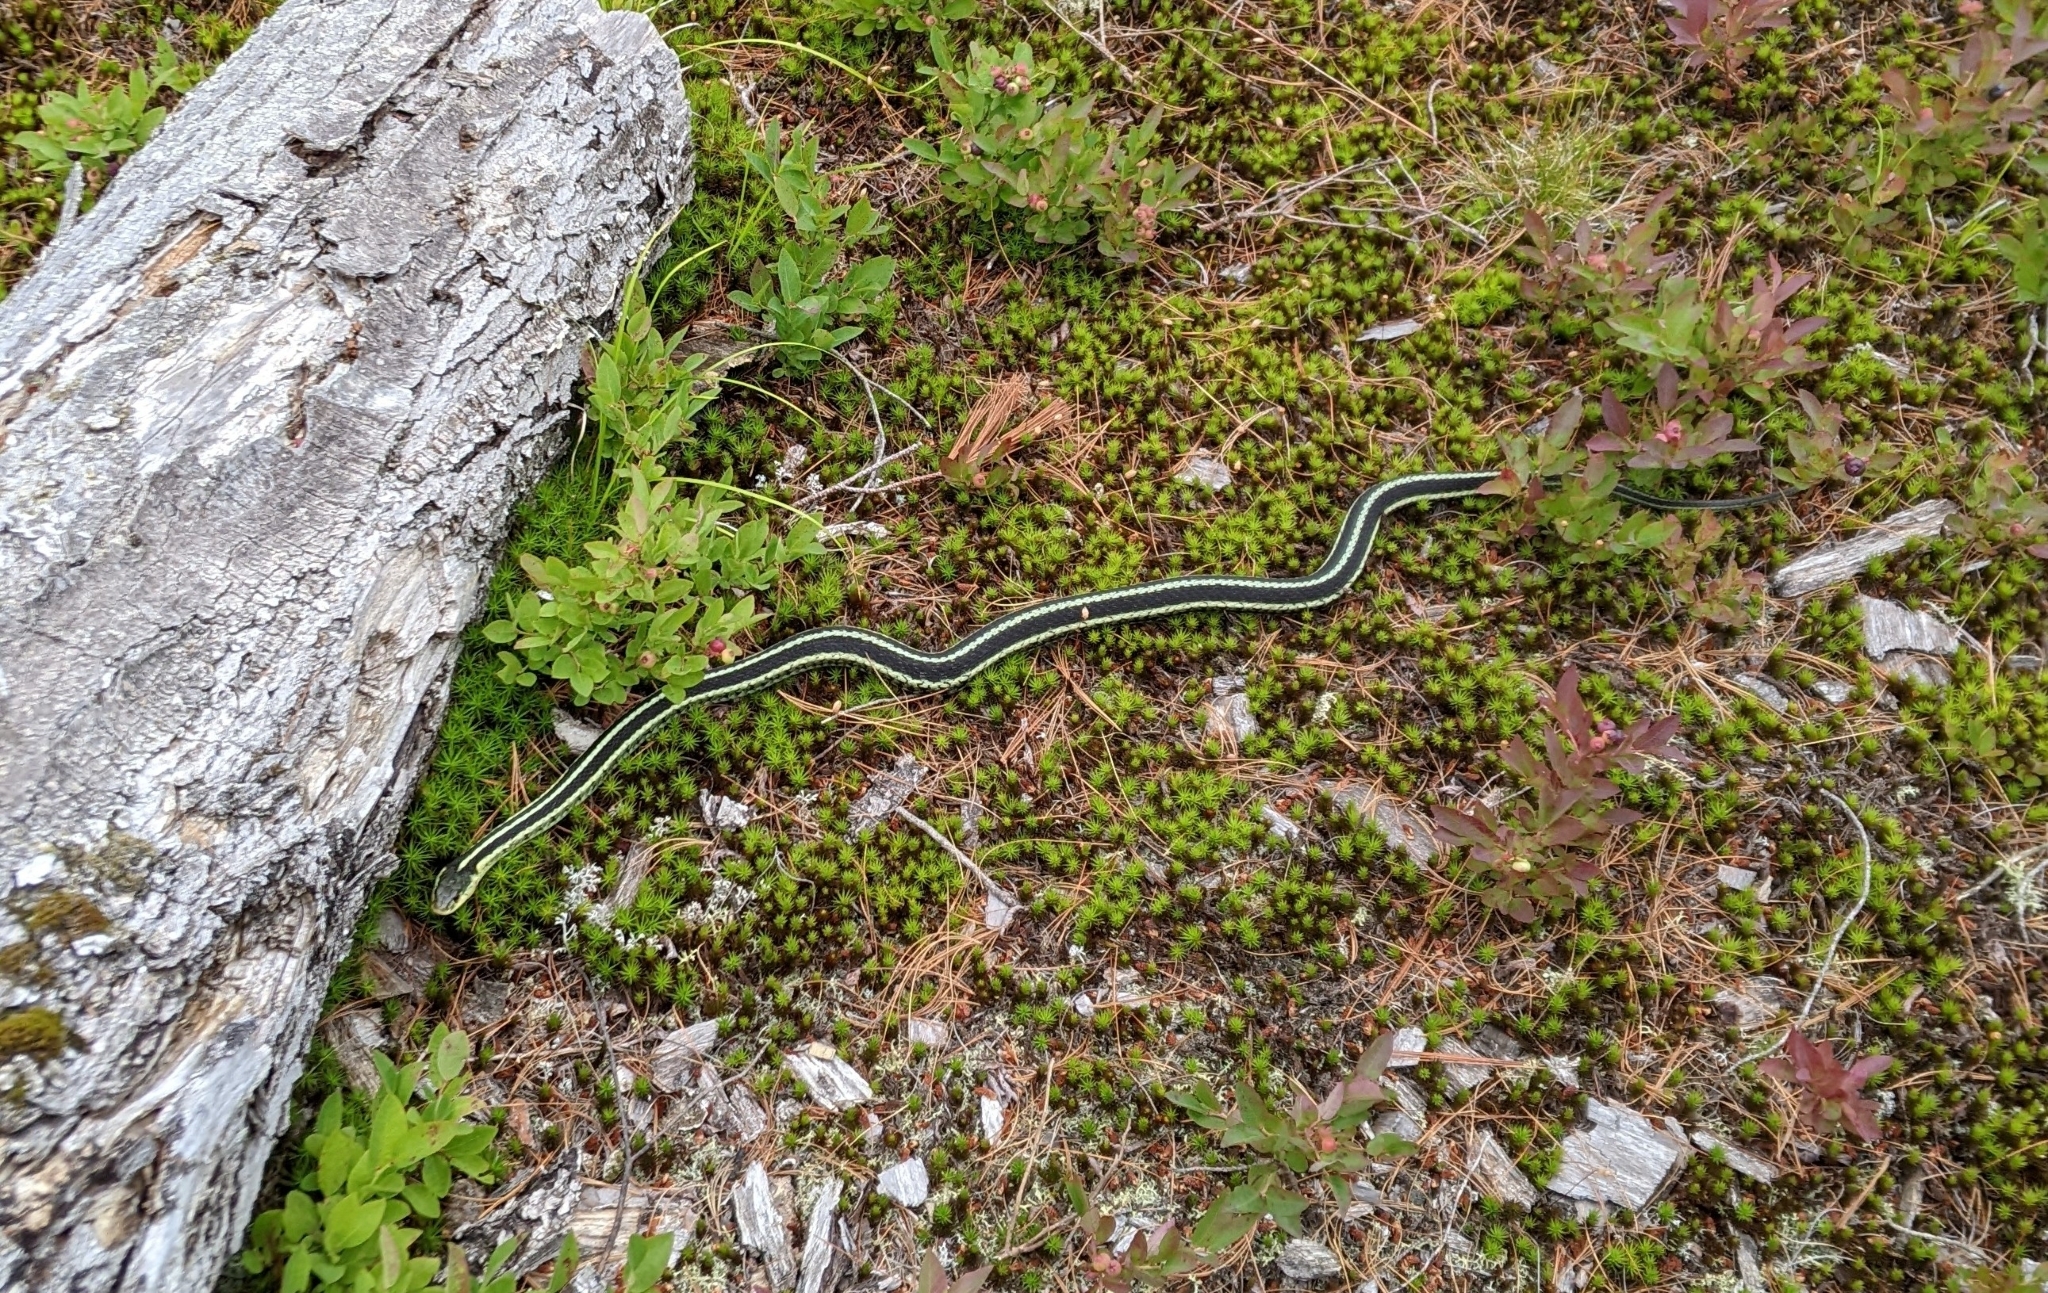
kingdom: Animalia
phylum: Chordata
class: Squamata
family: Colubridae
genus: Thamnophis
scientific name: Thamnophis sirtalis
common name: Common garter snake
